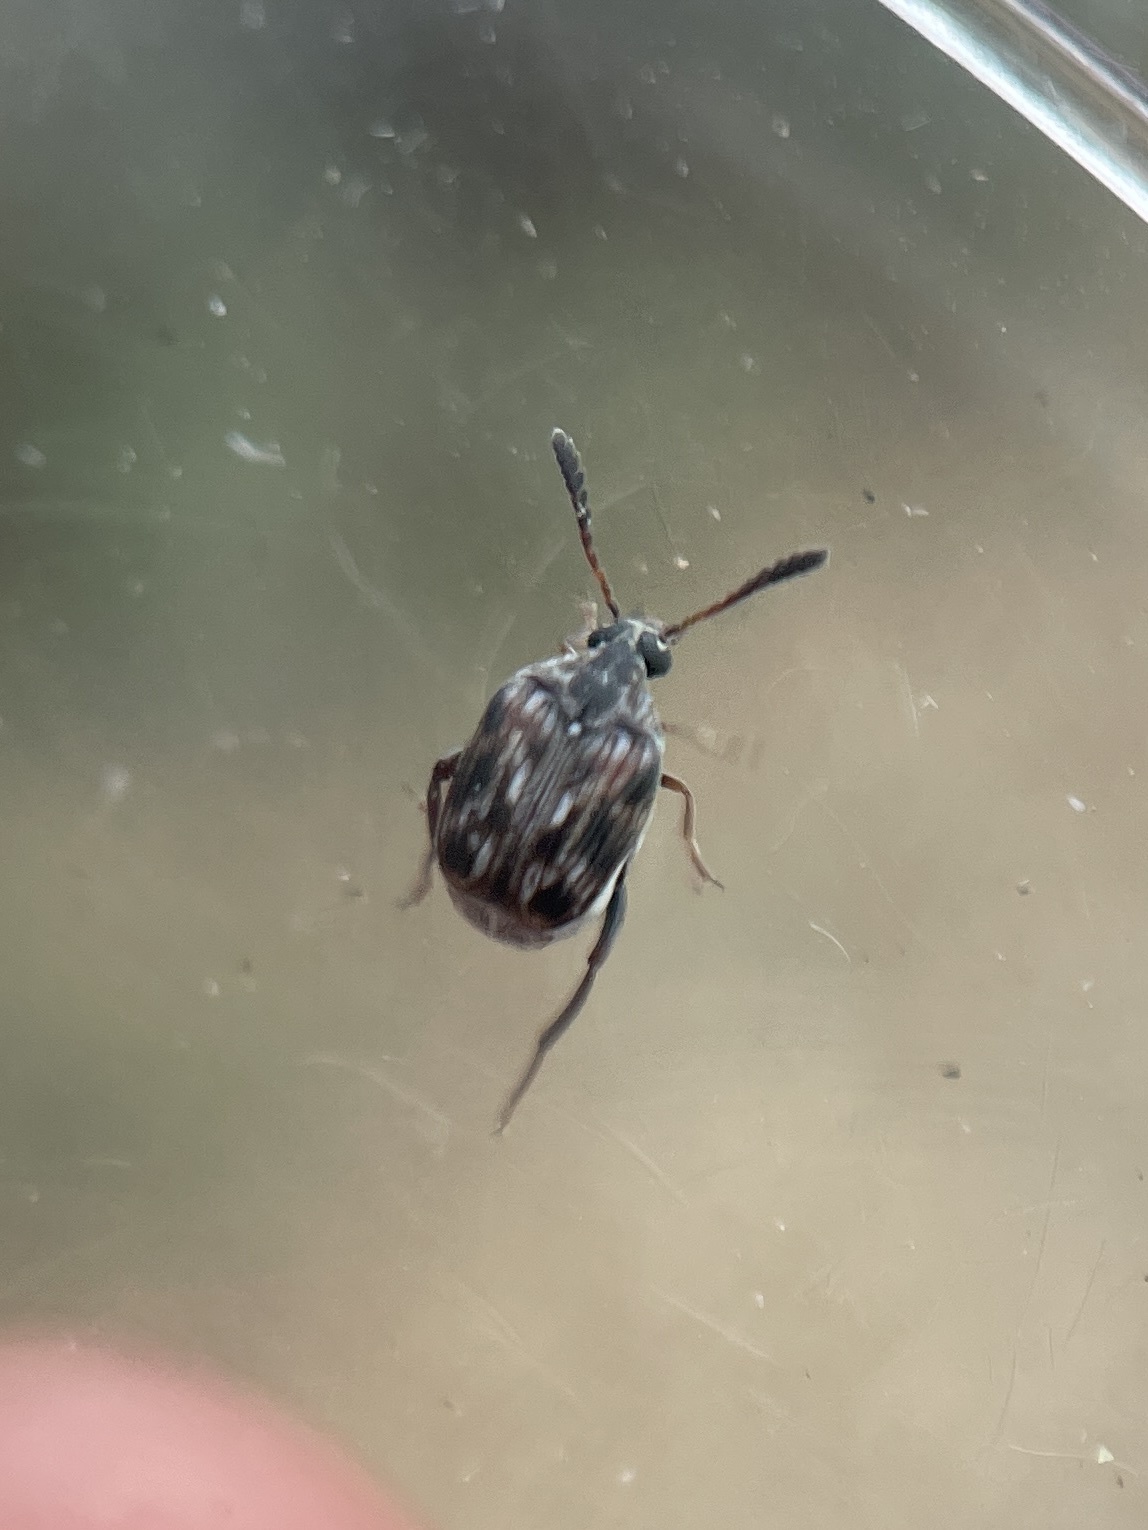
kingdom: Animalia
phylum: Arthropoda
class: Insecta
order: Coleoptera
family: Chrysomelidae
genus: Megacerus
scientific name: Megacerus cubiculus
